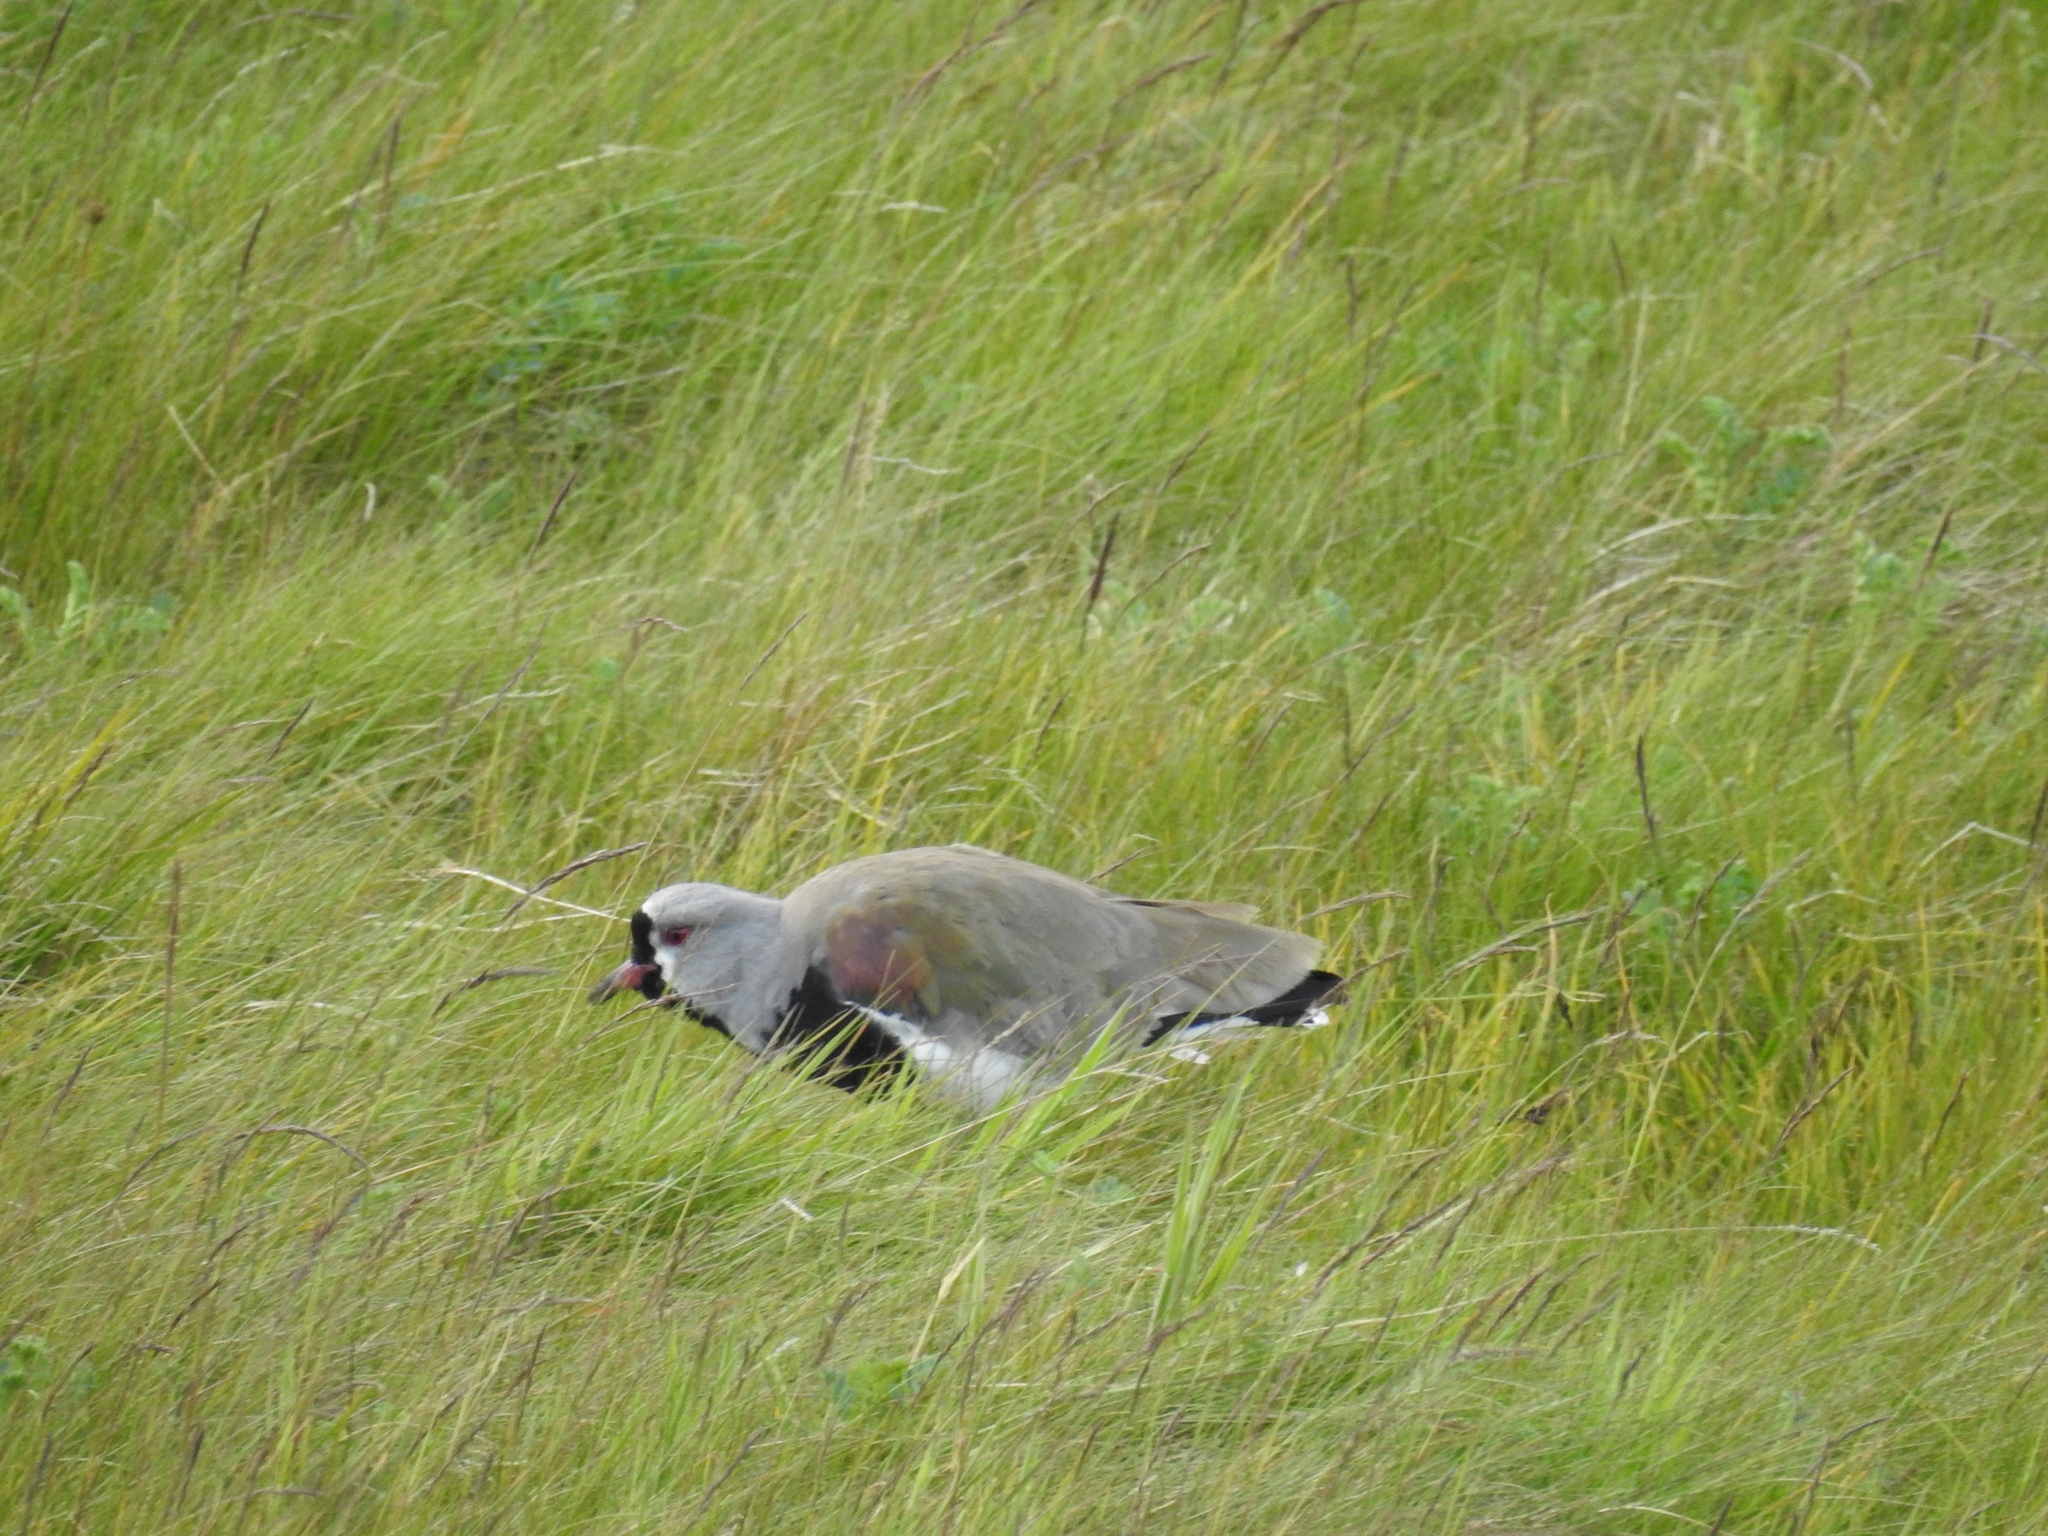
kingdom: Animalia
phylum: Chordata
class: Aves
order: Charadriiformes
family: Charadriidae
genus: Vanellus
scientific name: Vanellus chilensis
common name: Southern lapwing
